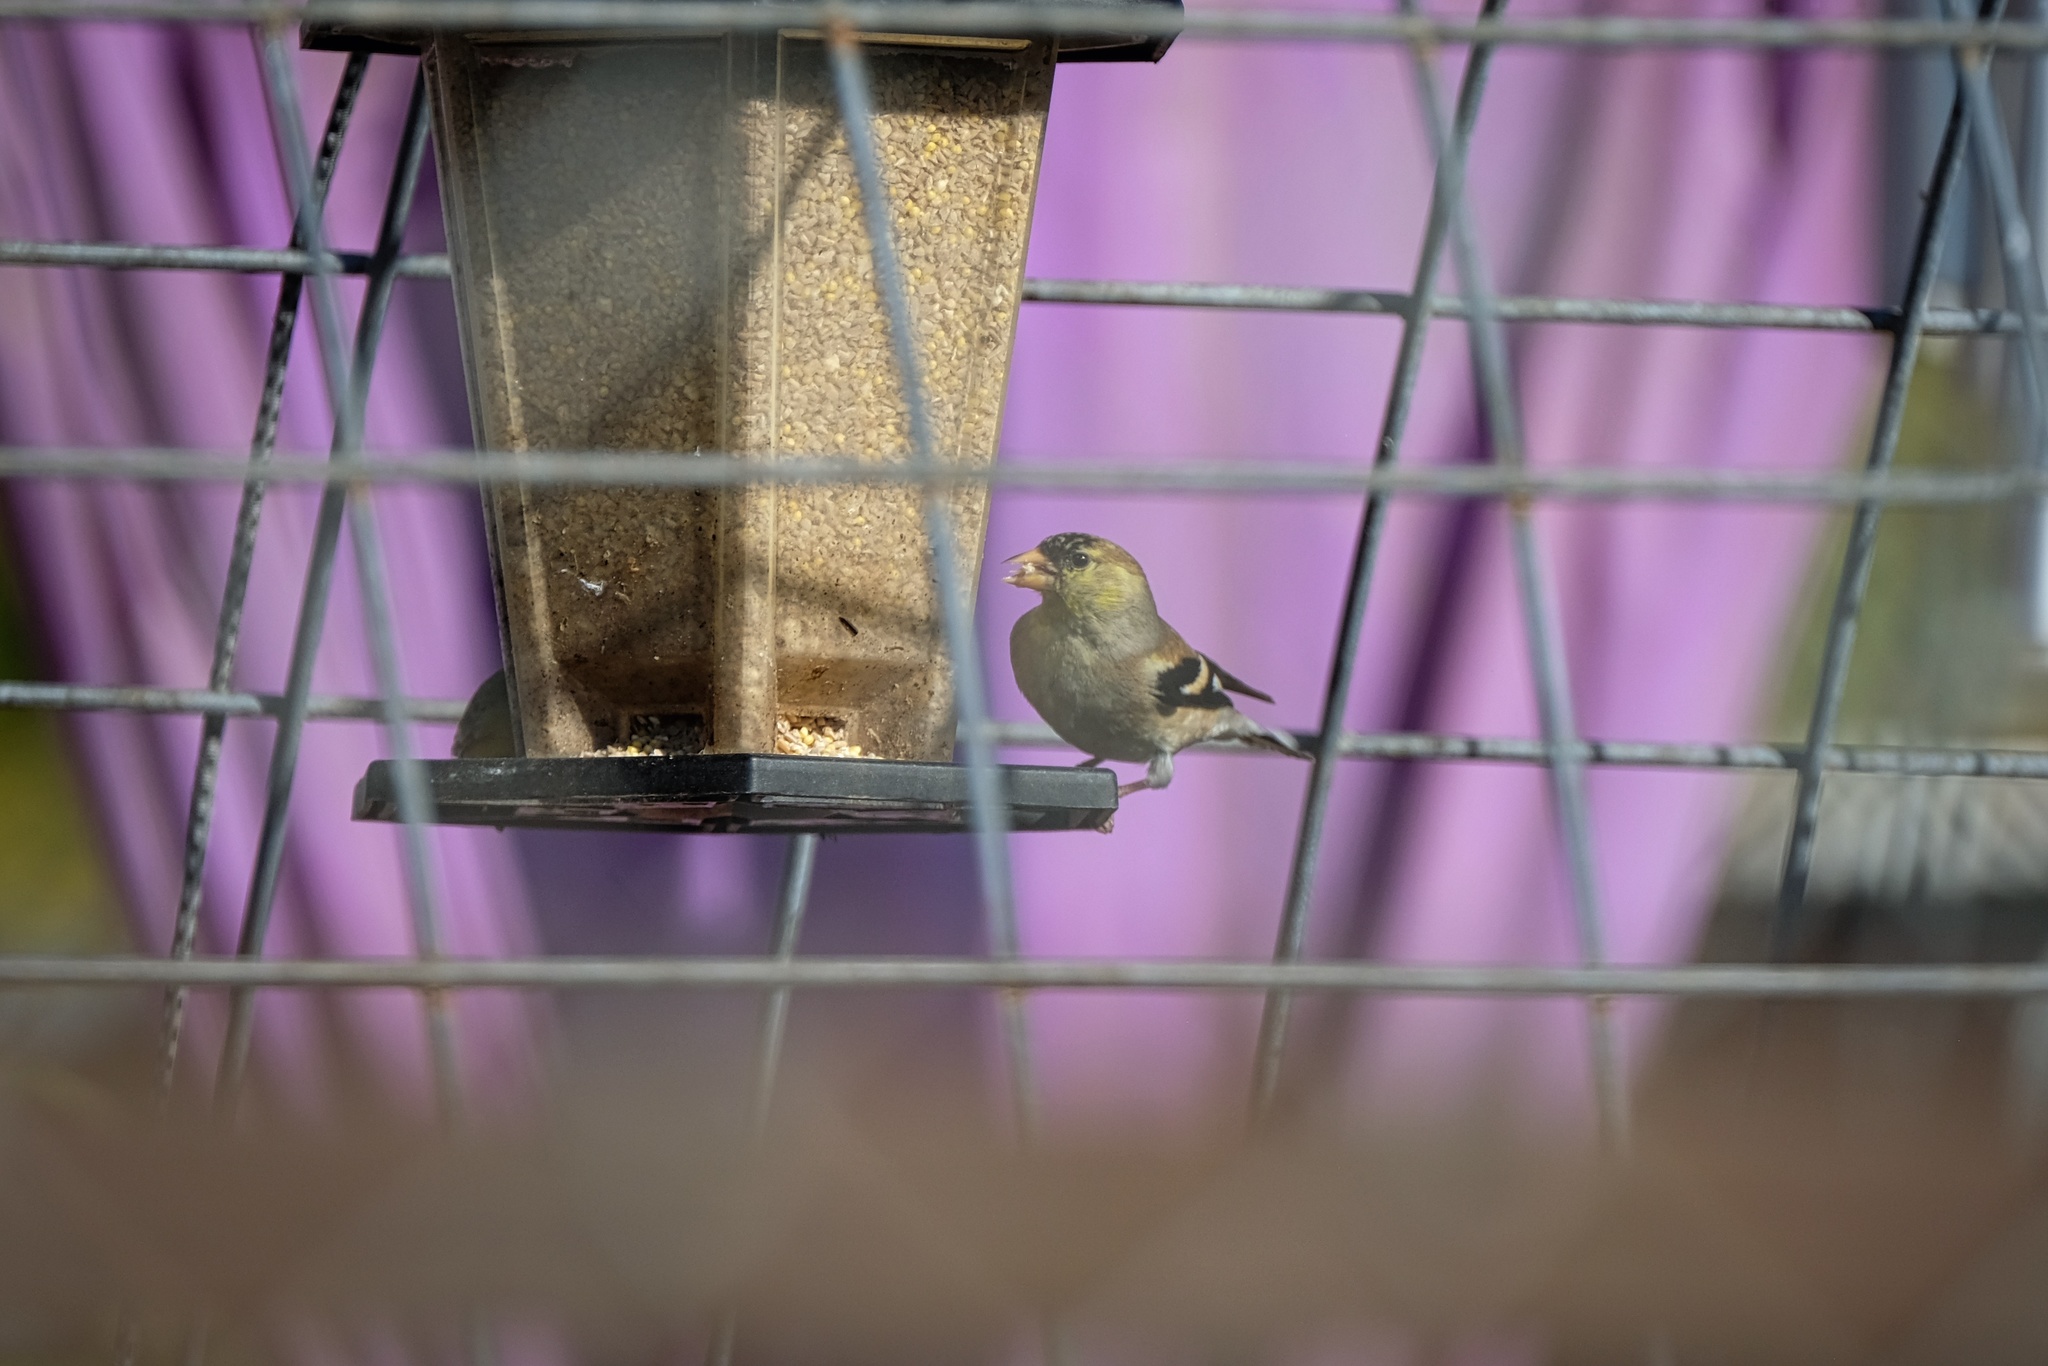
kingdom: Animalia
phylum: Chordata
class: Aves
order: Passeriformes
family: Fringillidae
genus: Spinus
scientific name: Spinus tristis
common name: American goldfinch
